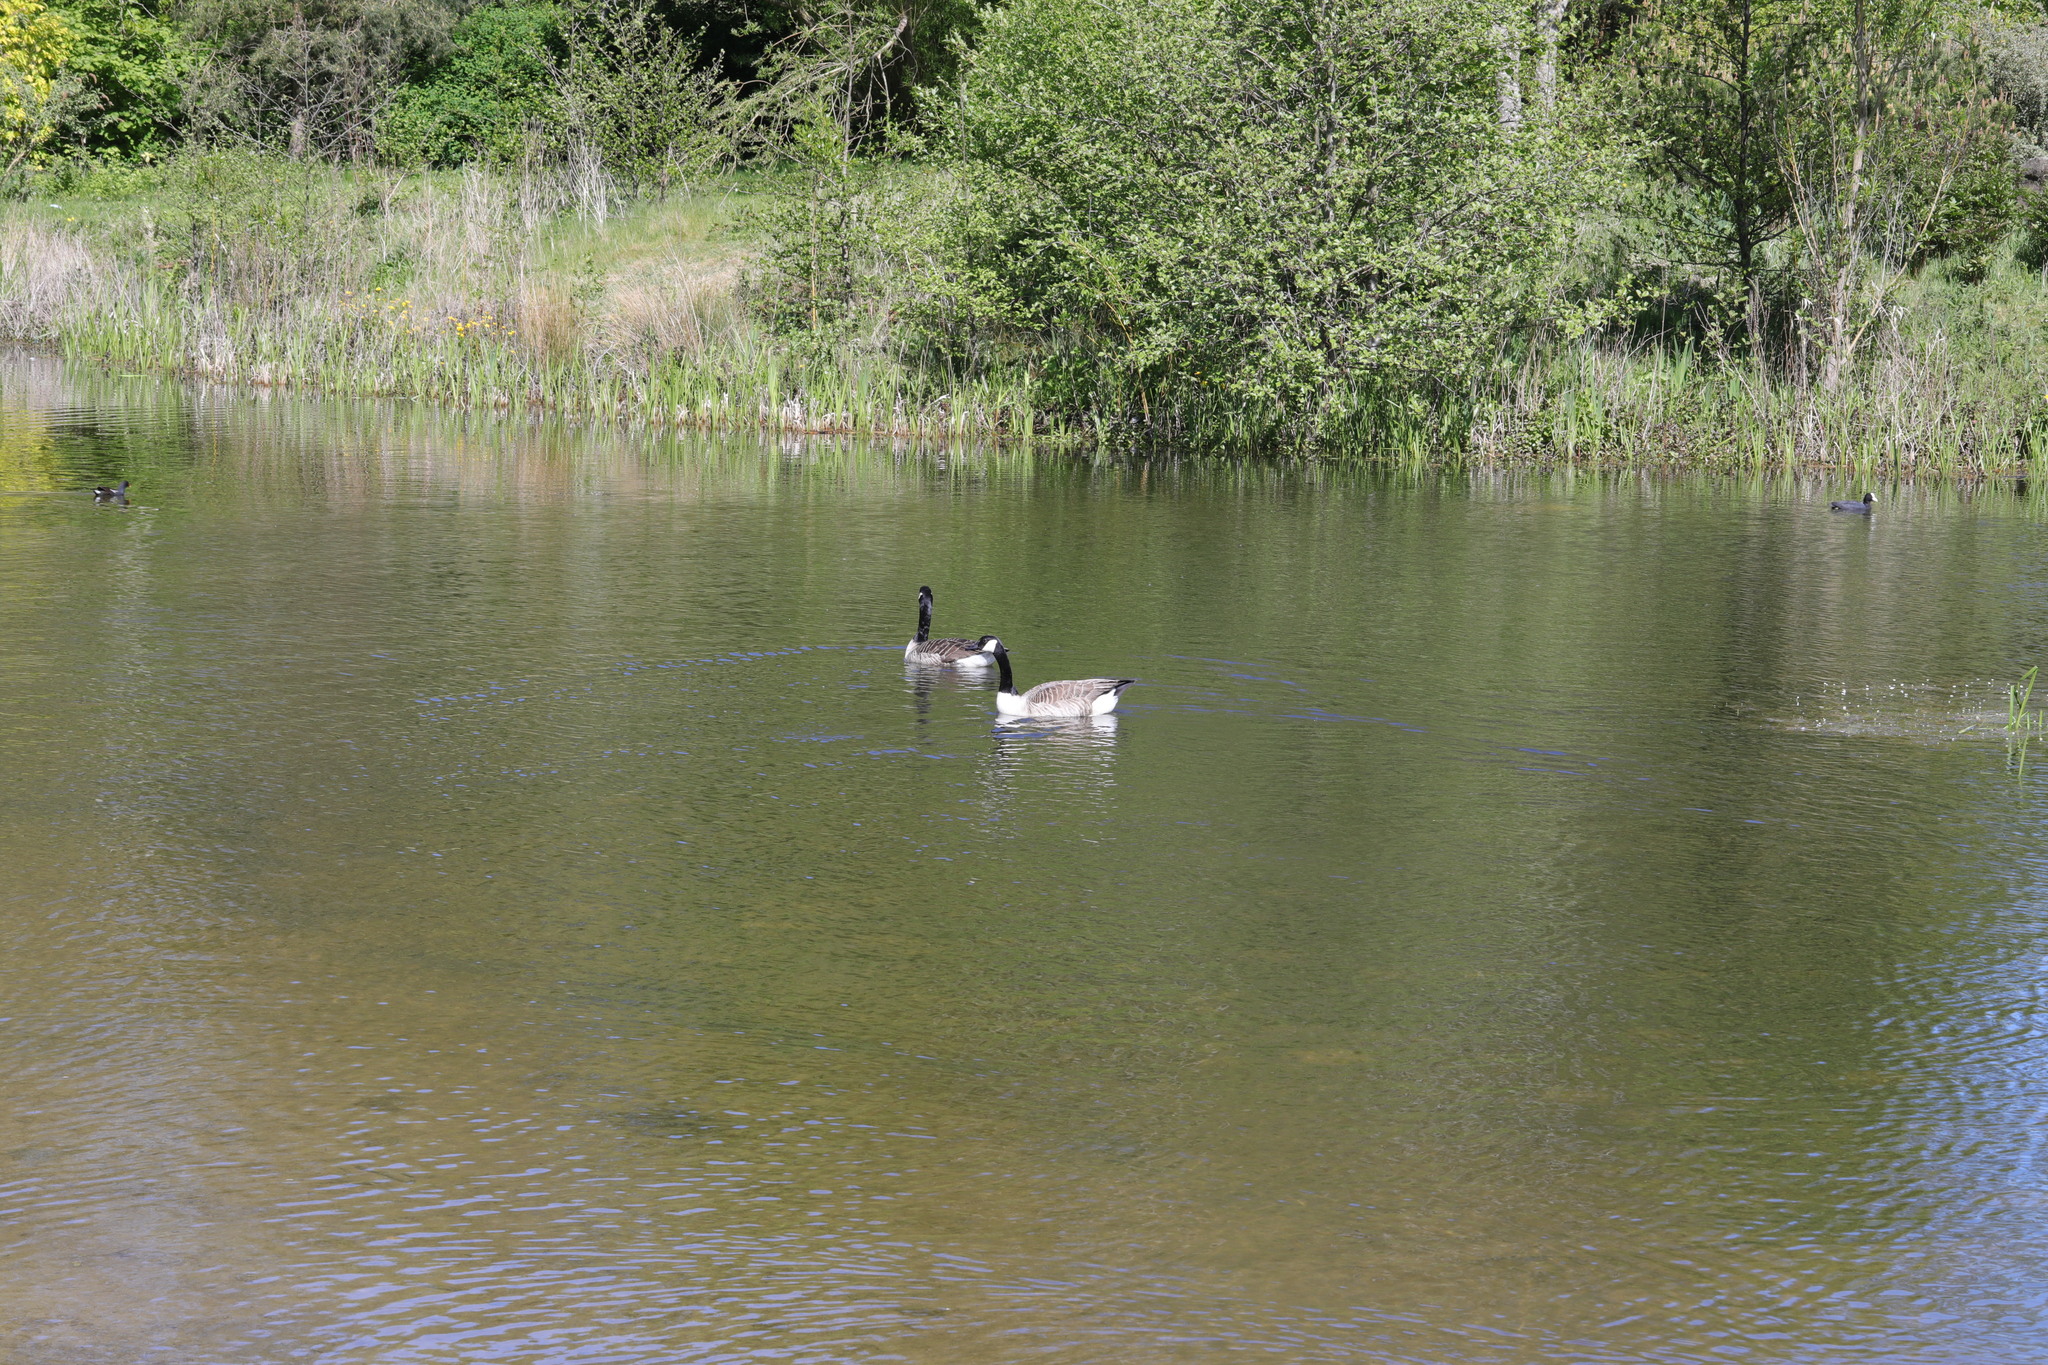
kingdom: Animalia
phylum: Chordata
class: Aves
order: Anseriformes
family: Anatidae
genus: Branta
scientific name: Branta canadensis
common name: Canada goose
